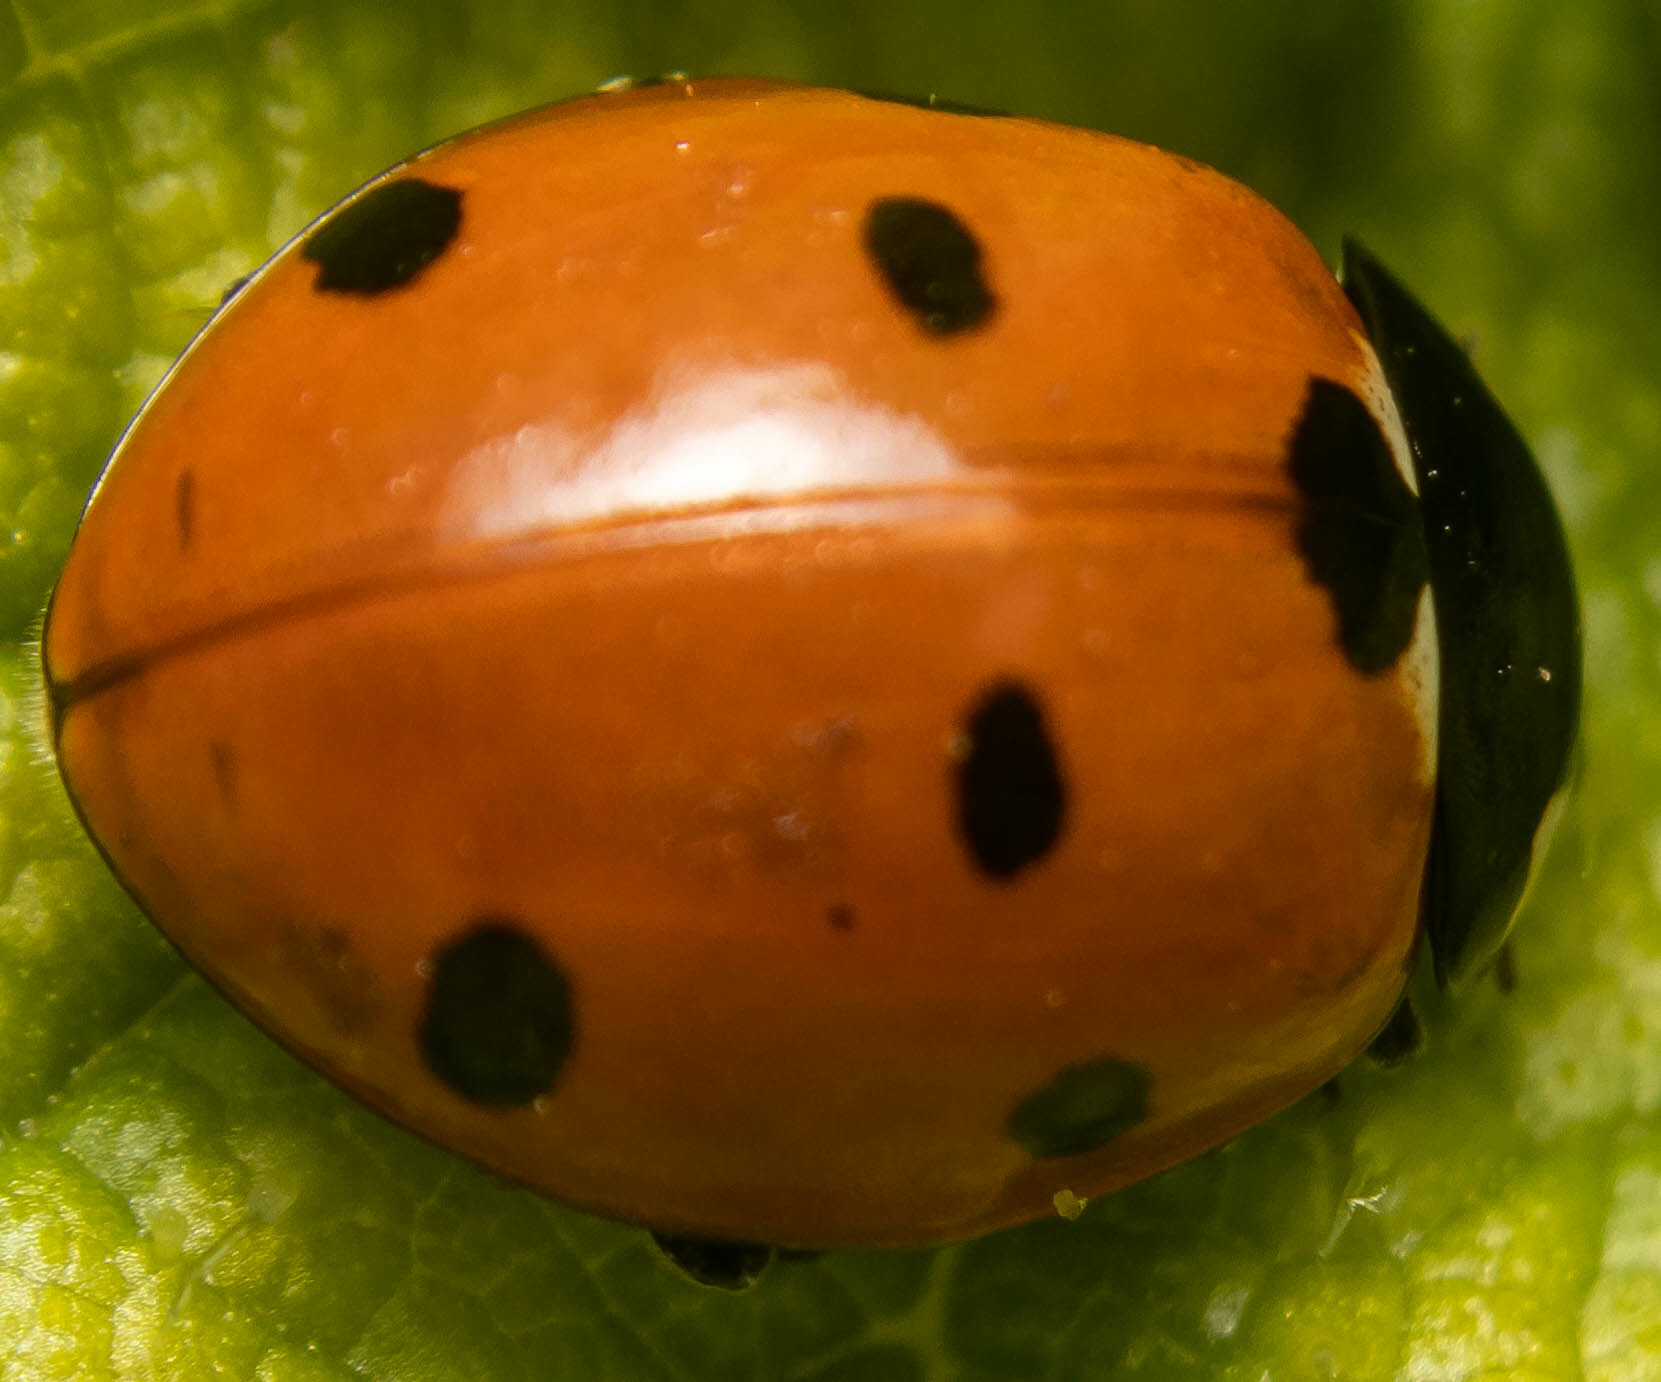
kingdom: Animalia
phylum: Arthropoda
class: Insecta
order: Coleoptera
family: Coccinellidae
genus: Coccinella
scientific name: Coccinella septempunctata
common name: Sevenspotted lady beetle
